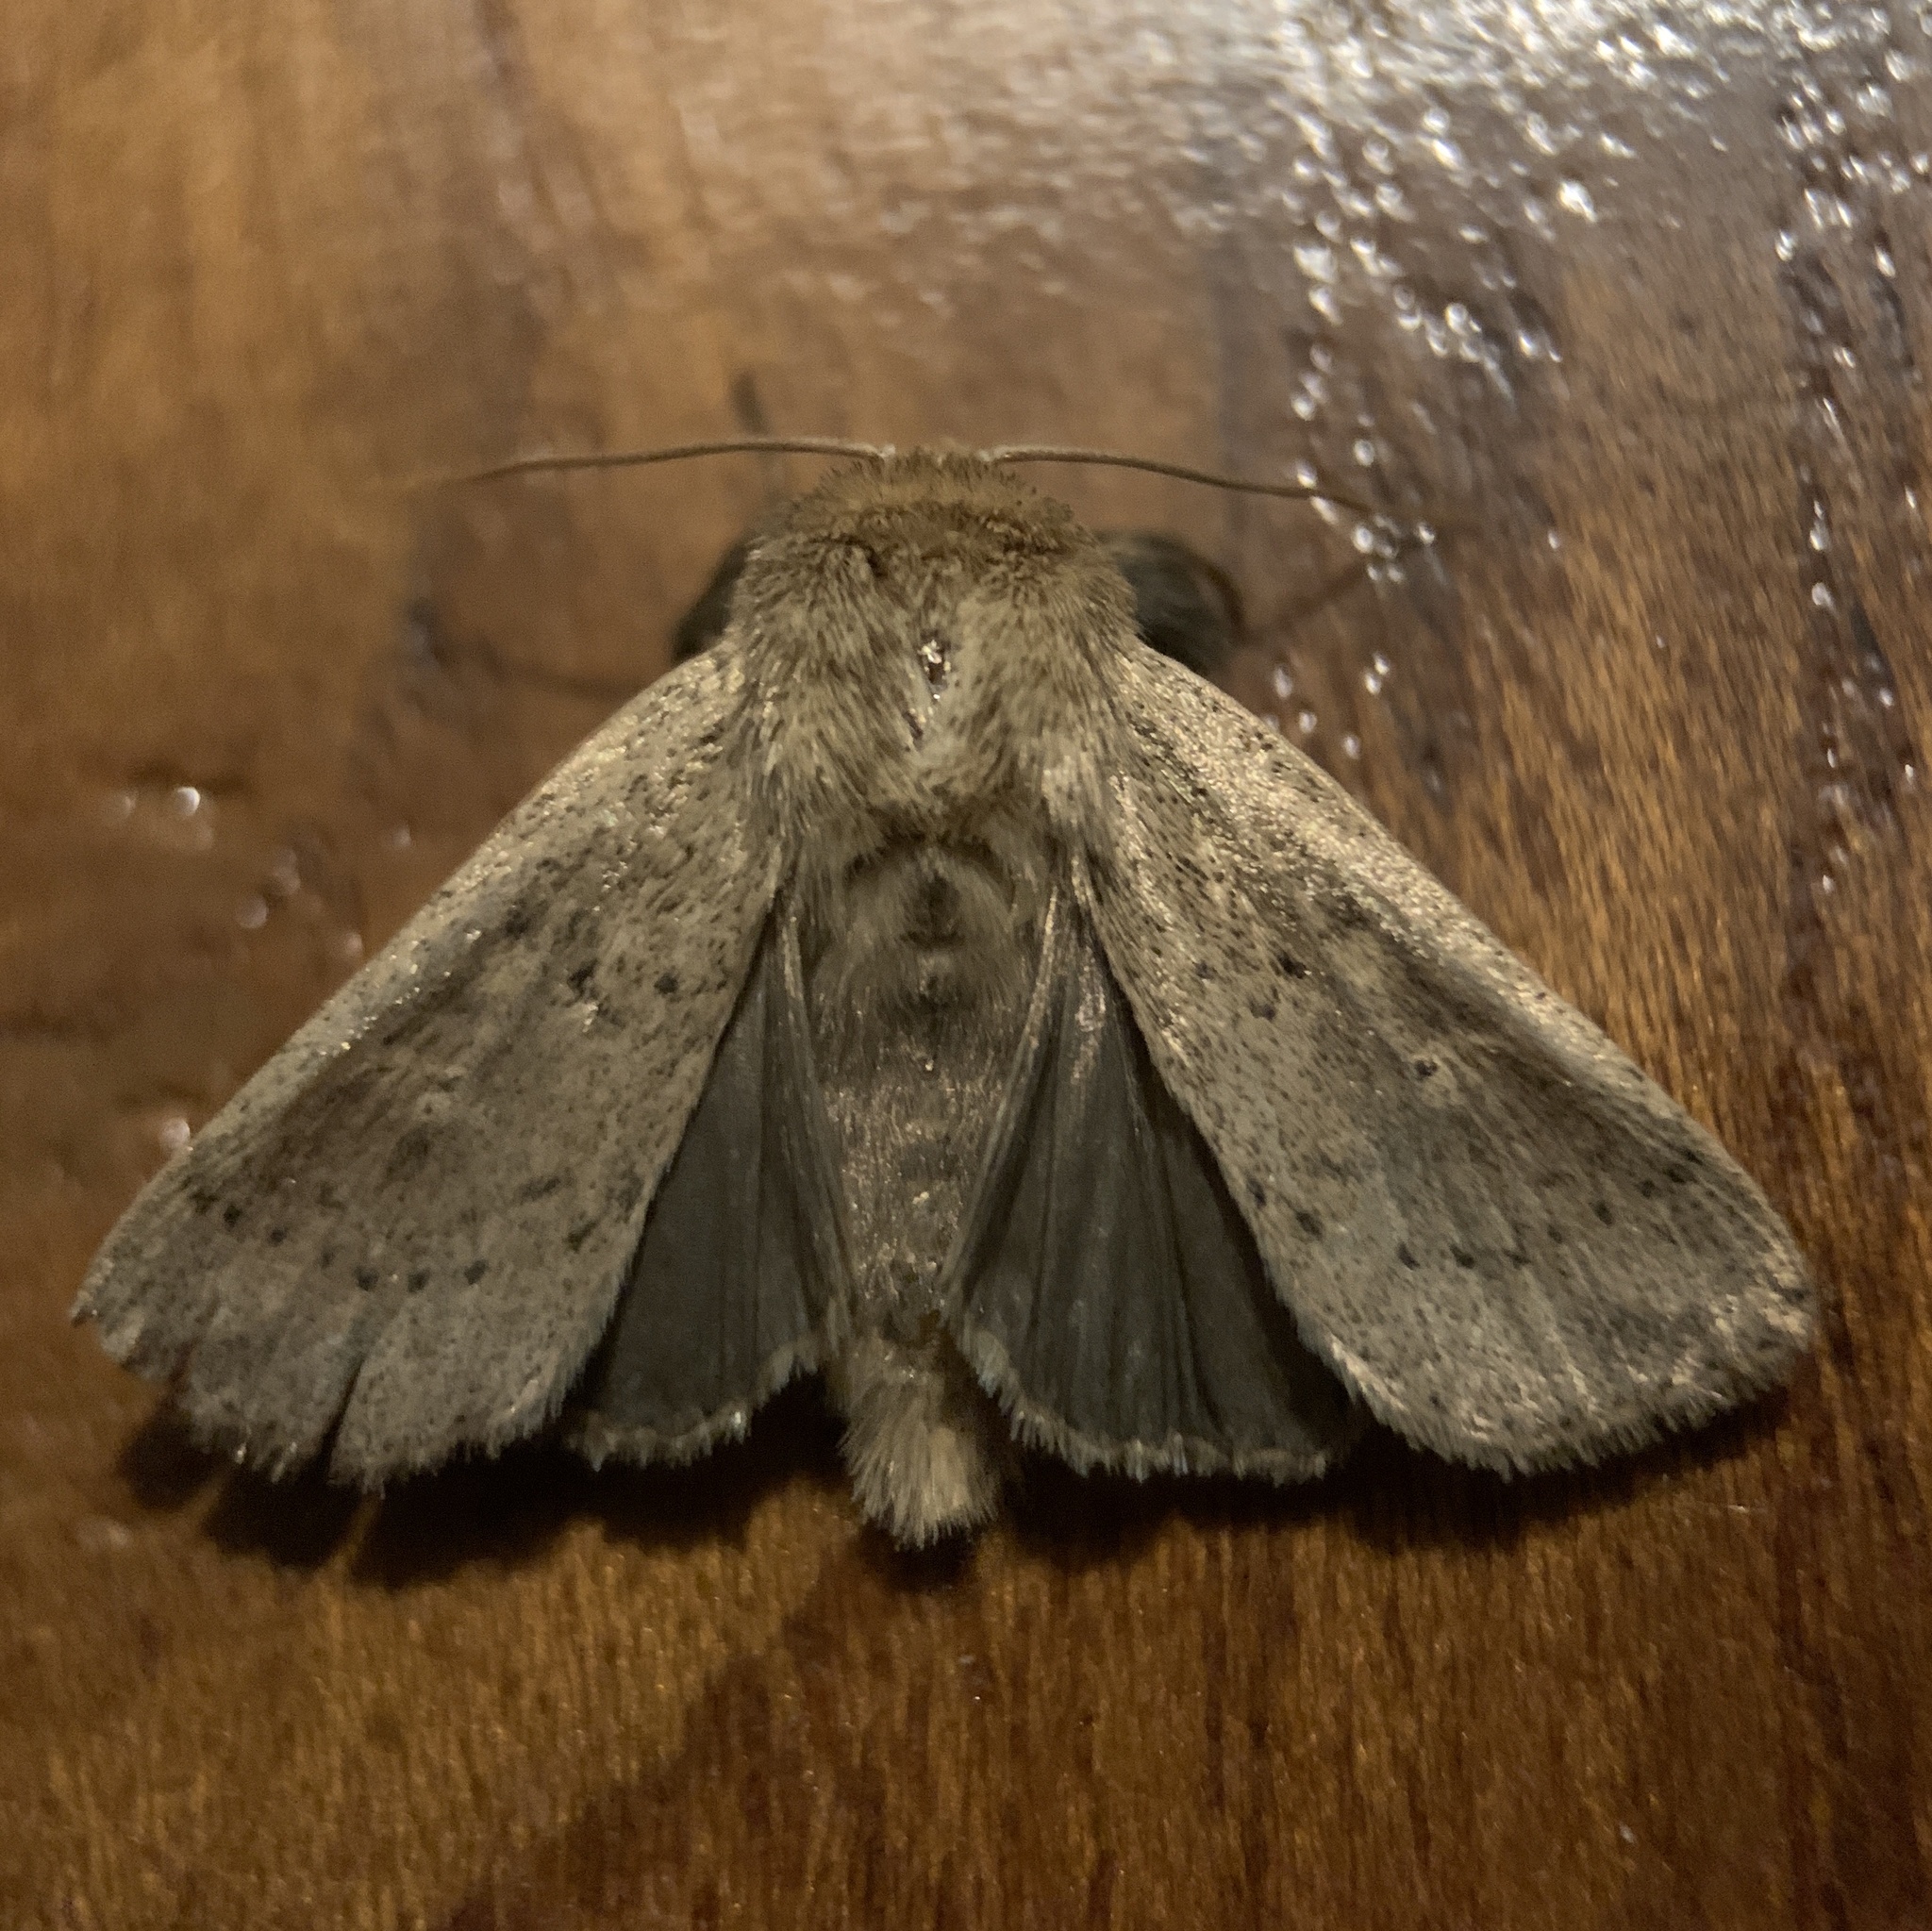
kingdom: Animalia
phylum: Arthropoda
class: Insecta
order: Lepidoptera
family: Noctuidae
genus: Leucania
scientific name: Leucania ursula
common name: Ursula wainscot
